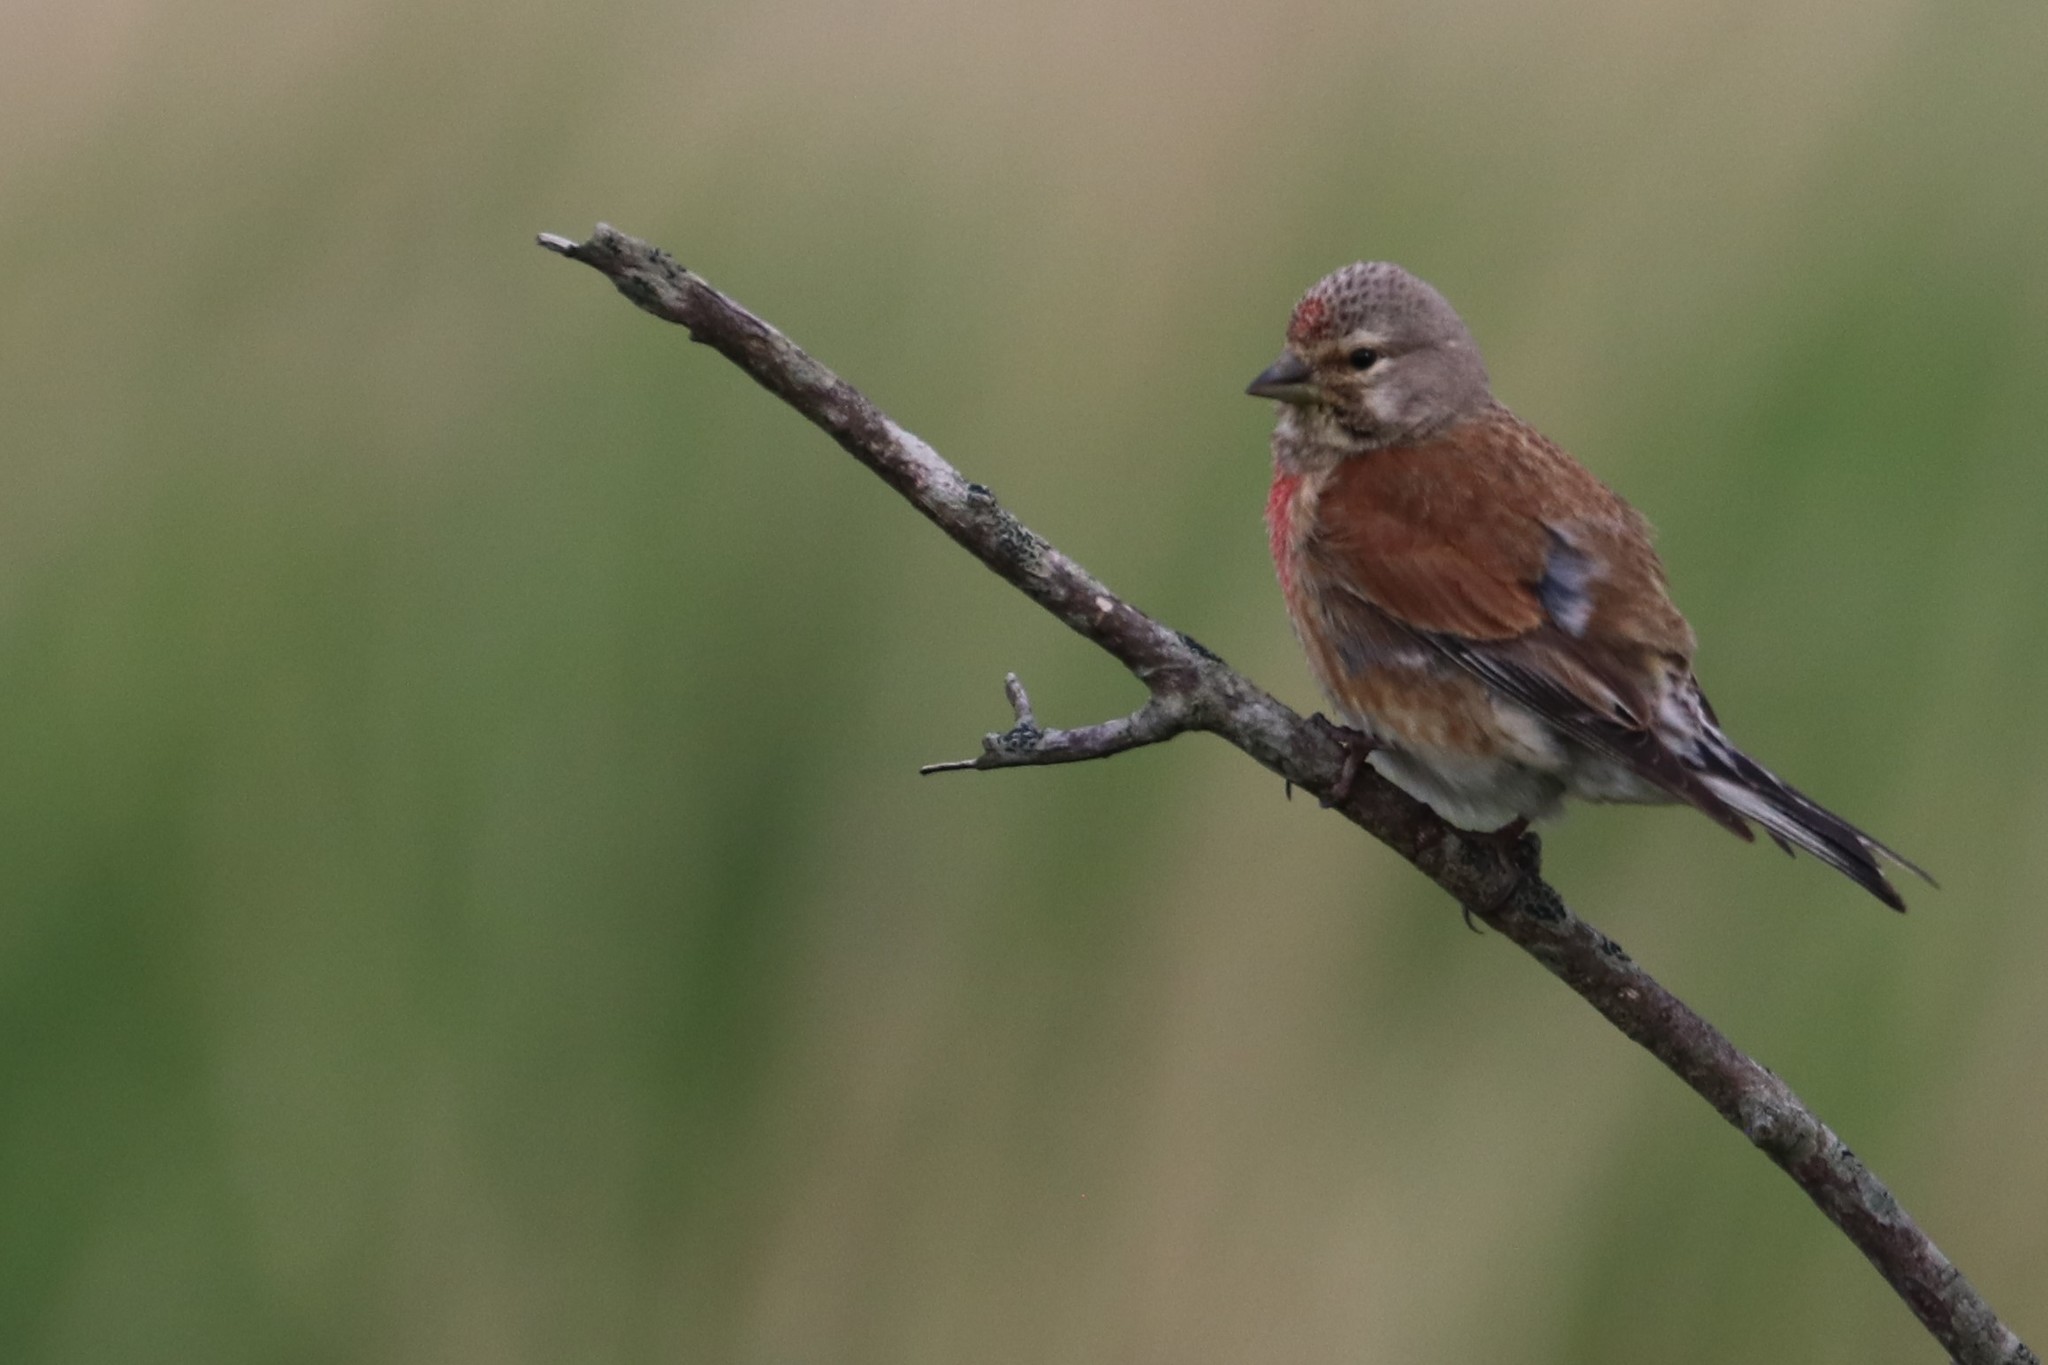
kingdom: Animalia
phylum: Chordata
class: Aves
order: Passeriformes
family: Fringillidae
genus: Linaria
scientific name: Linaria cannabina
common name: Common linnet
